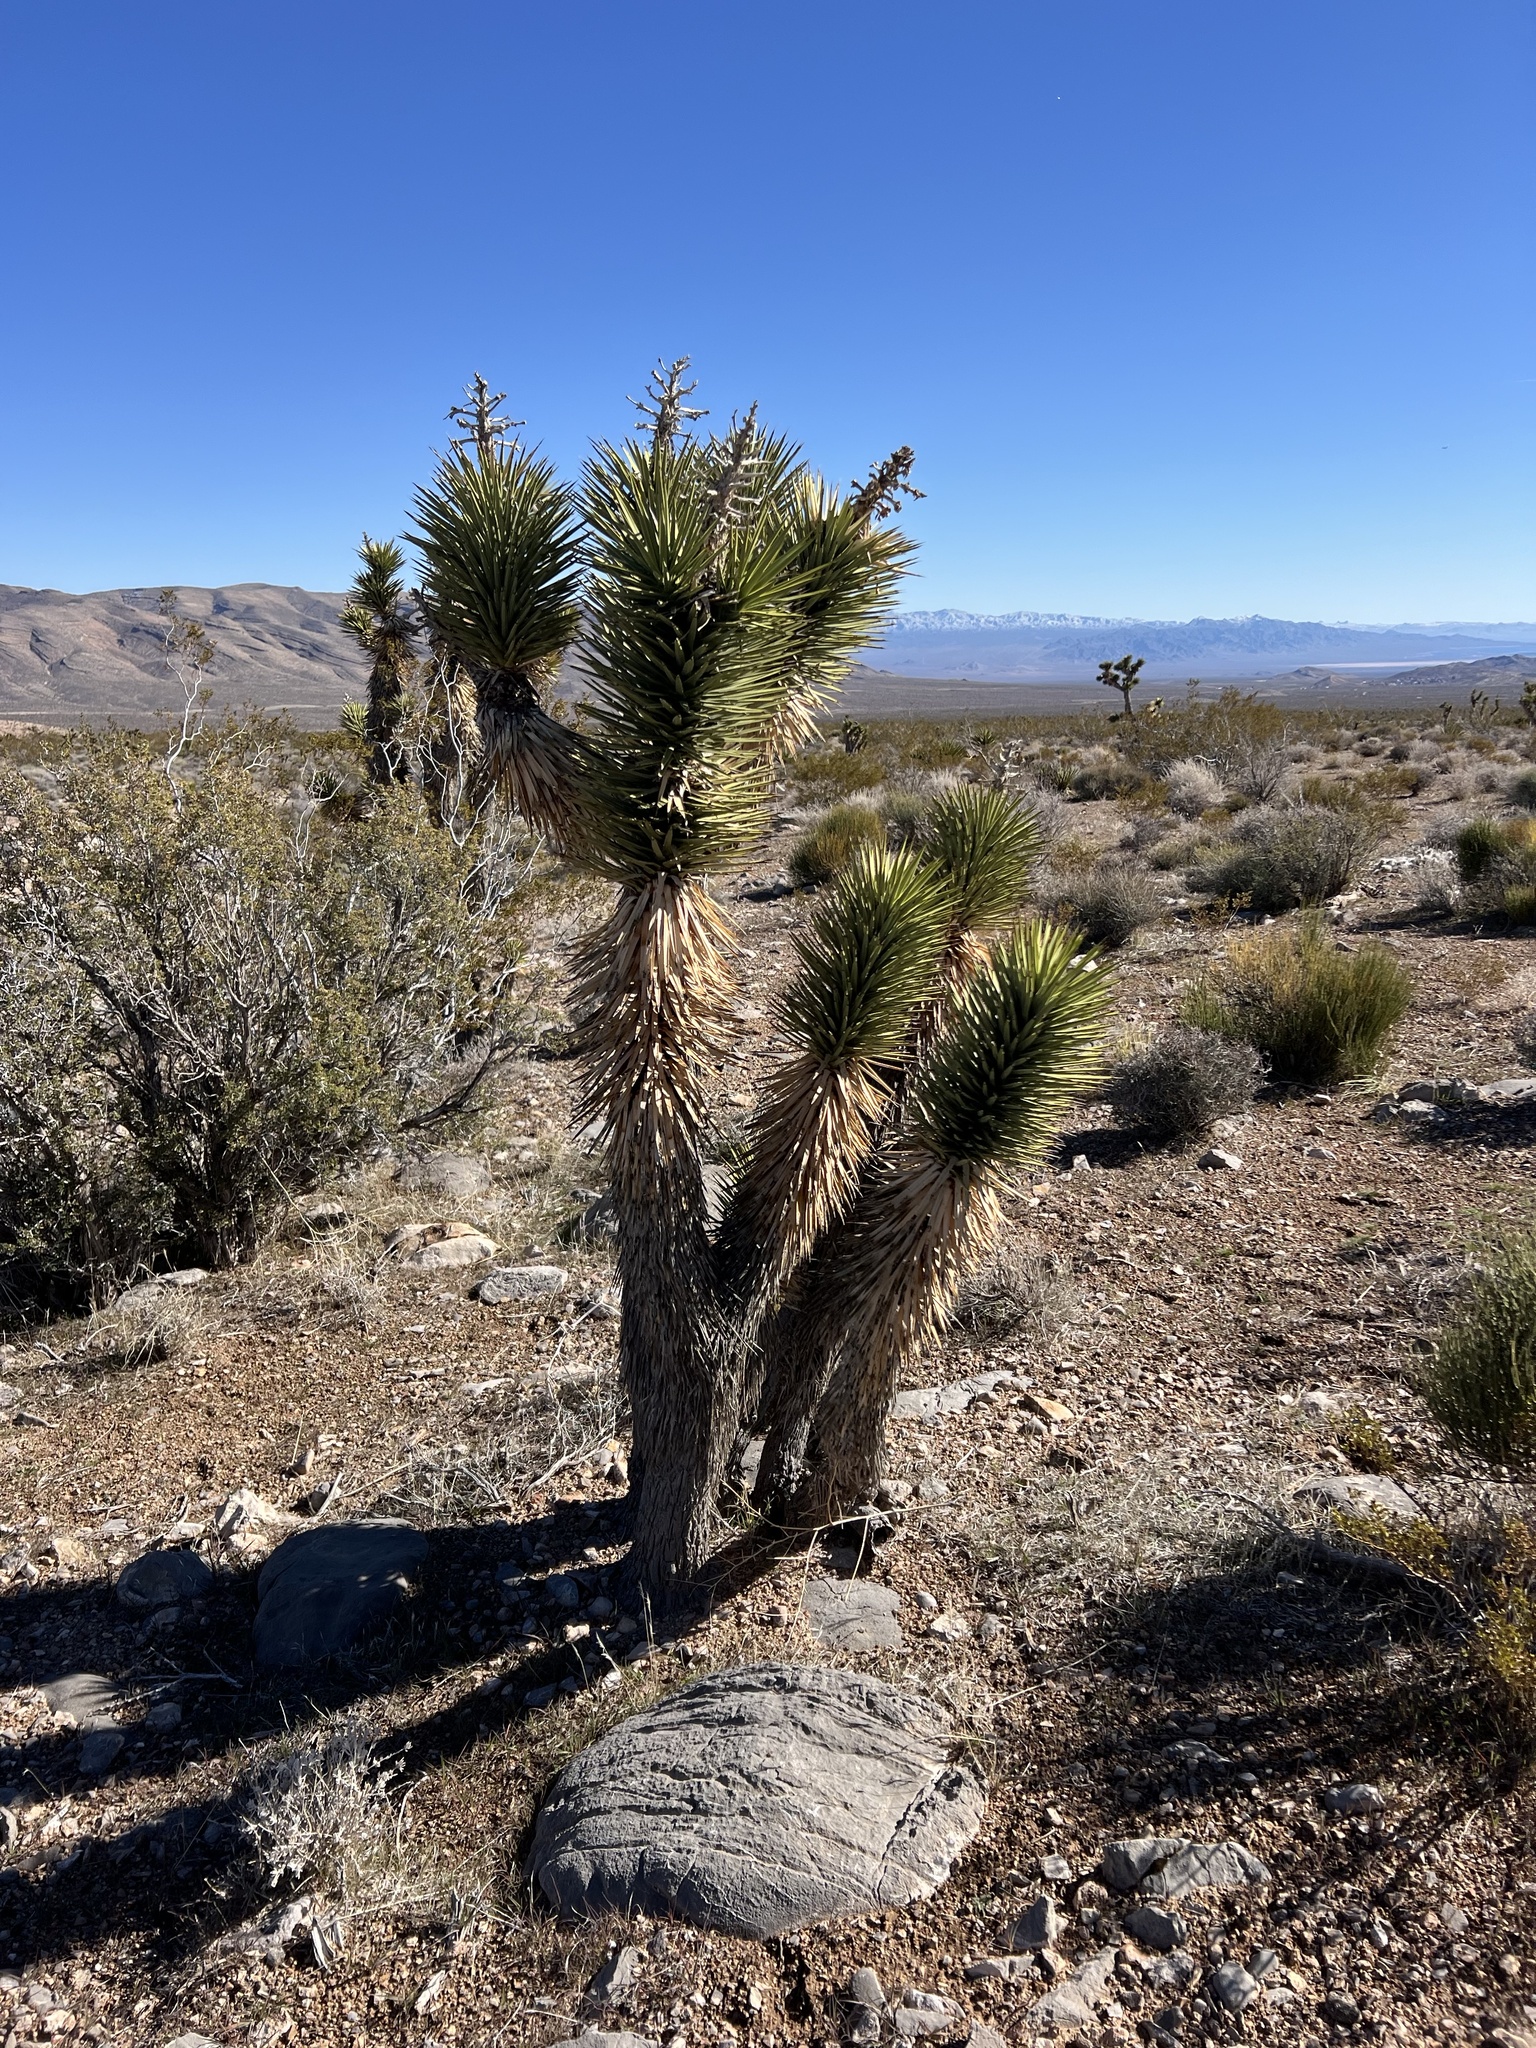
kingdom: Plantae
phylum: Tracheophyta
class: Liliopsida
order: Asparagales
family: Asparagaceae
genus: Yucca
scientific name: Yucca brevifolia
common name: Joshua tree
